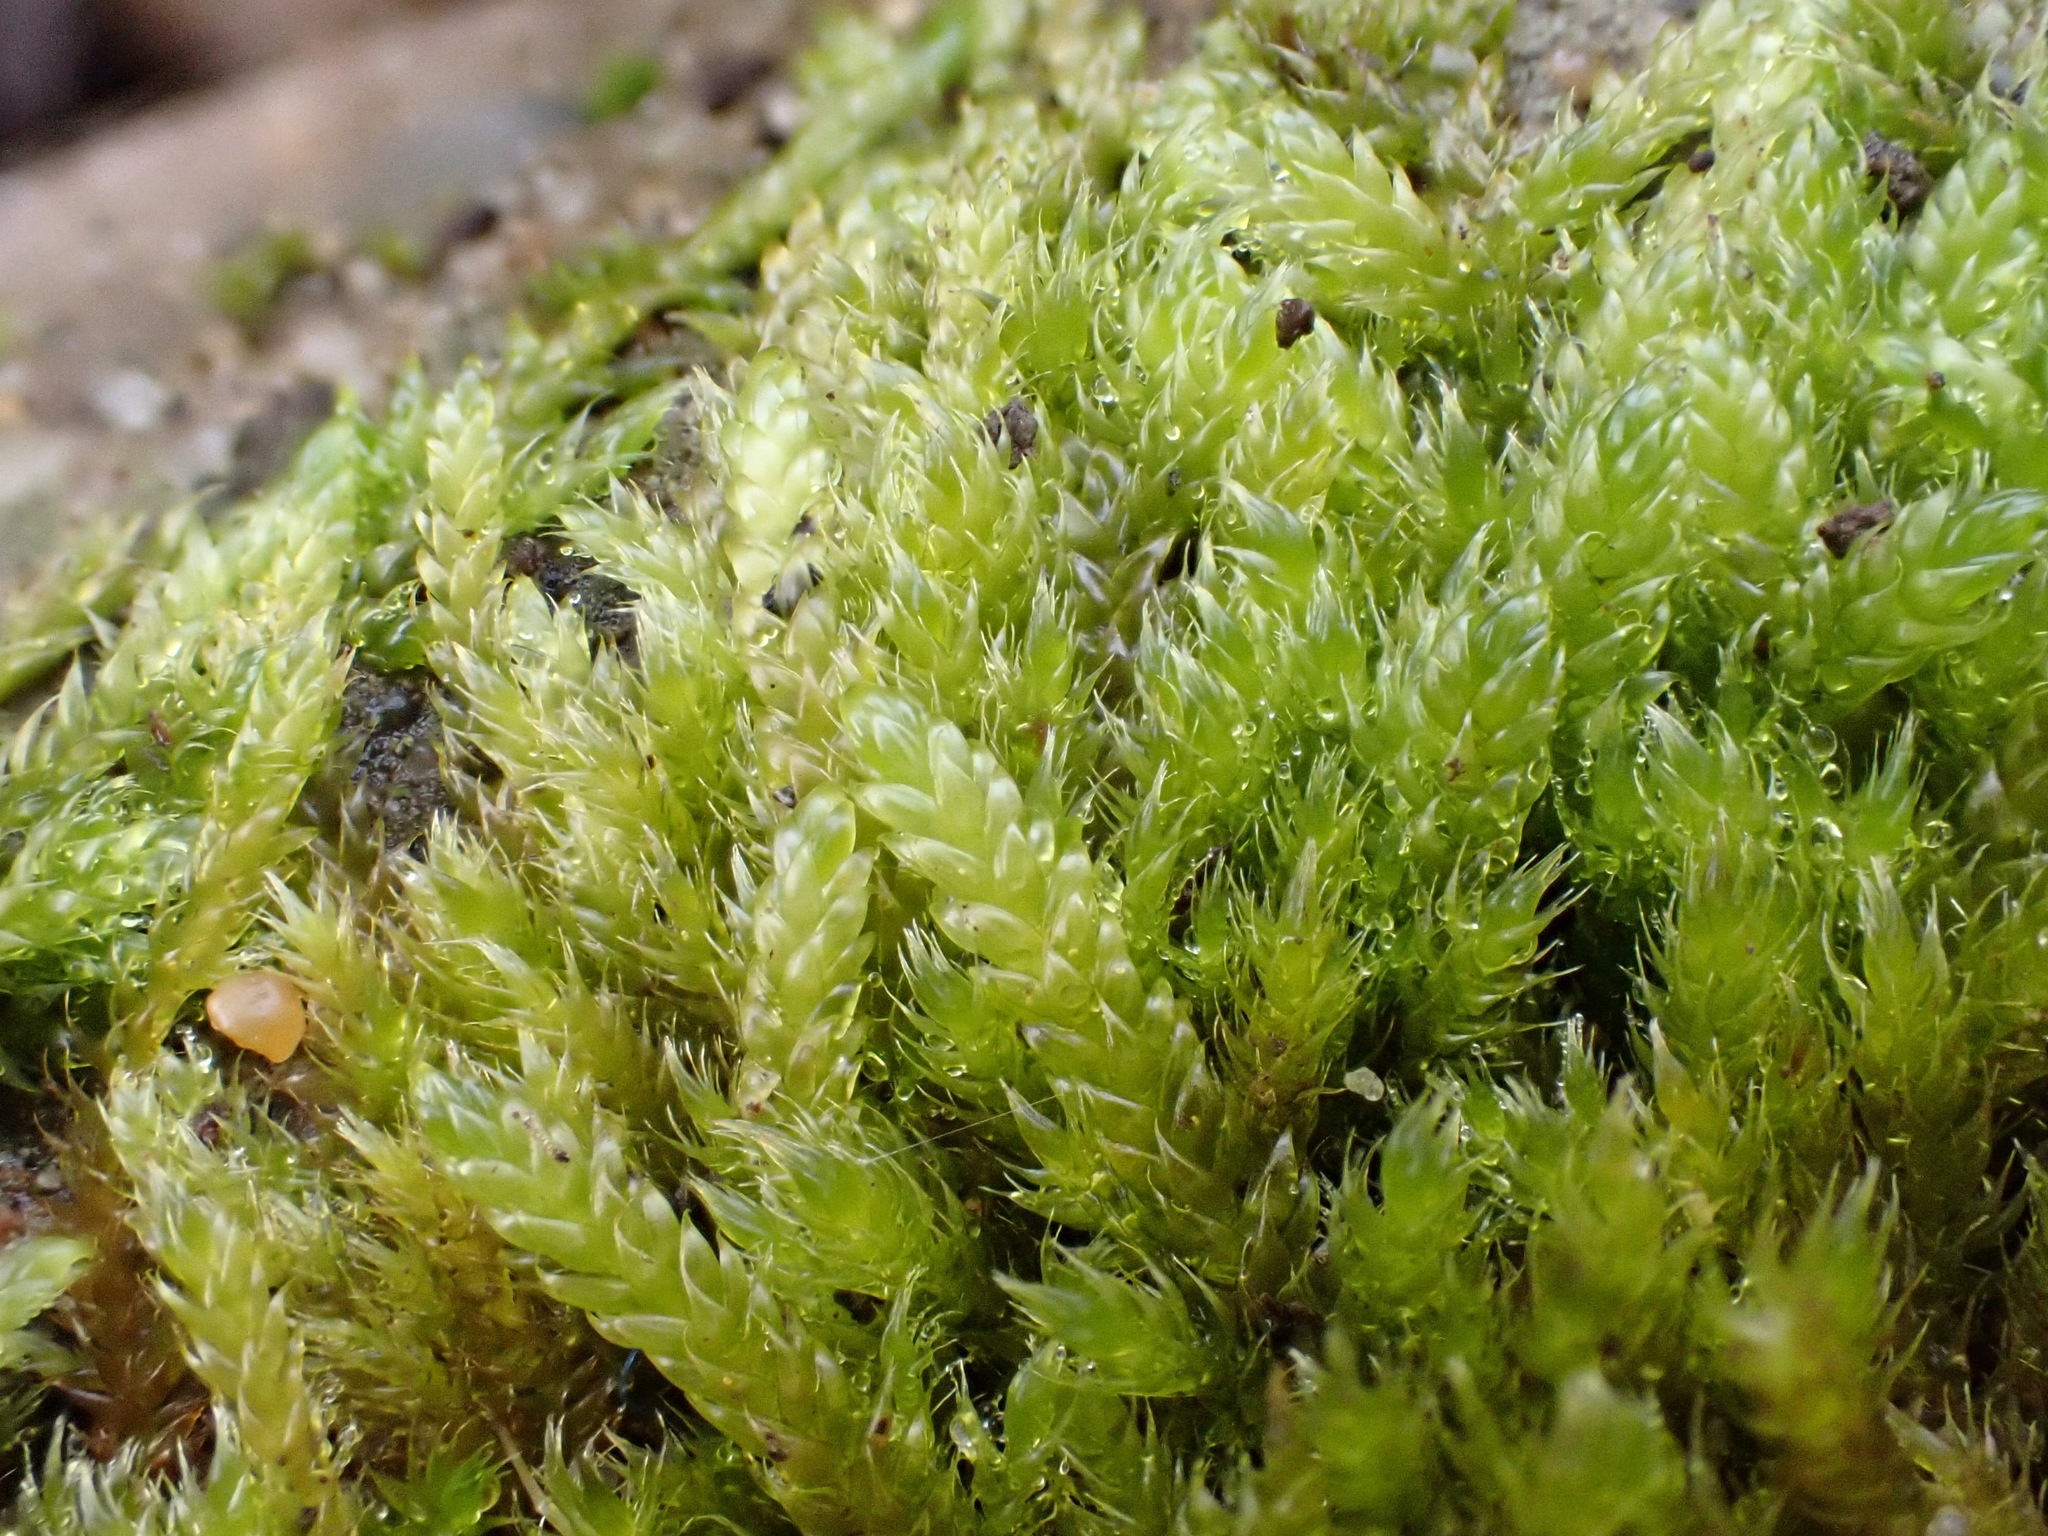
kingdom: Plantae
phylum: Bryophyta
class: Bryopsida
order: Hypnales
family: Hypnaceae
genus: Hypnum
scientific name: Hypnum cupressiforme
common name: Cypress-leaved plait-moss
